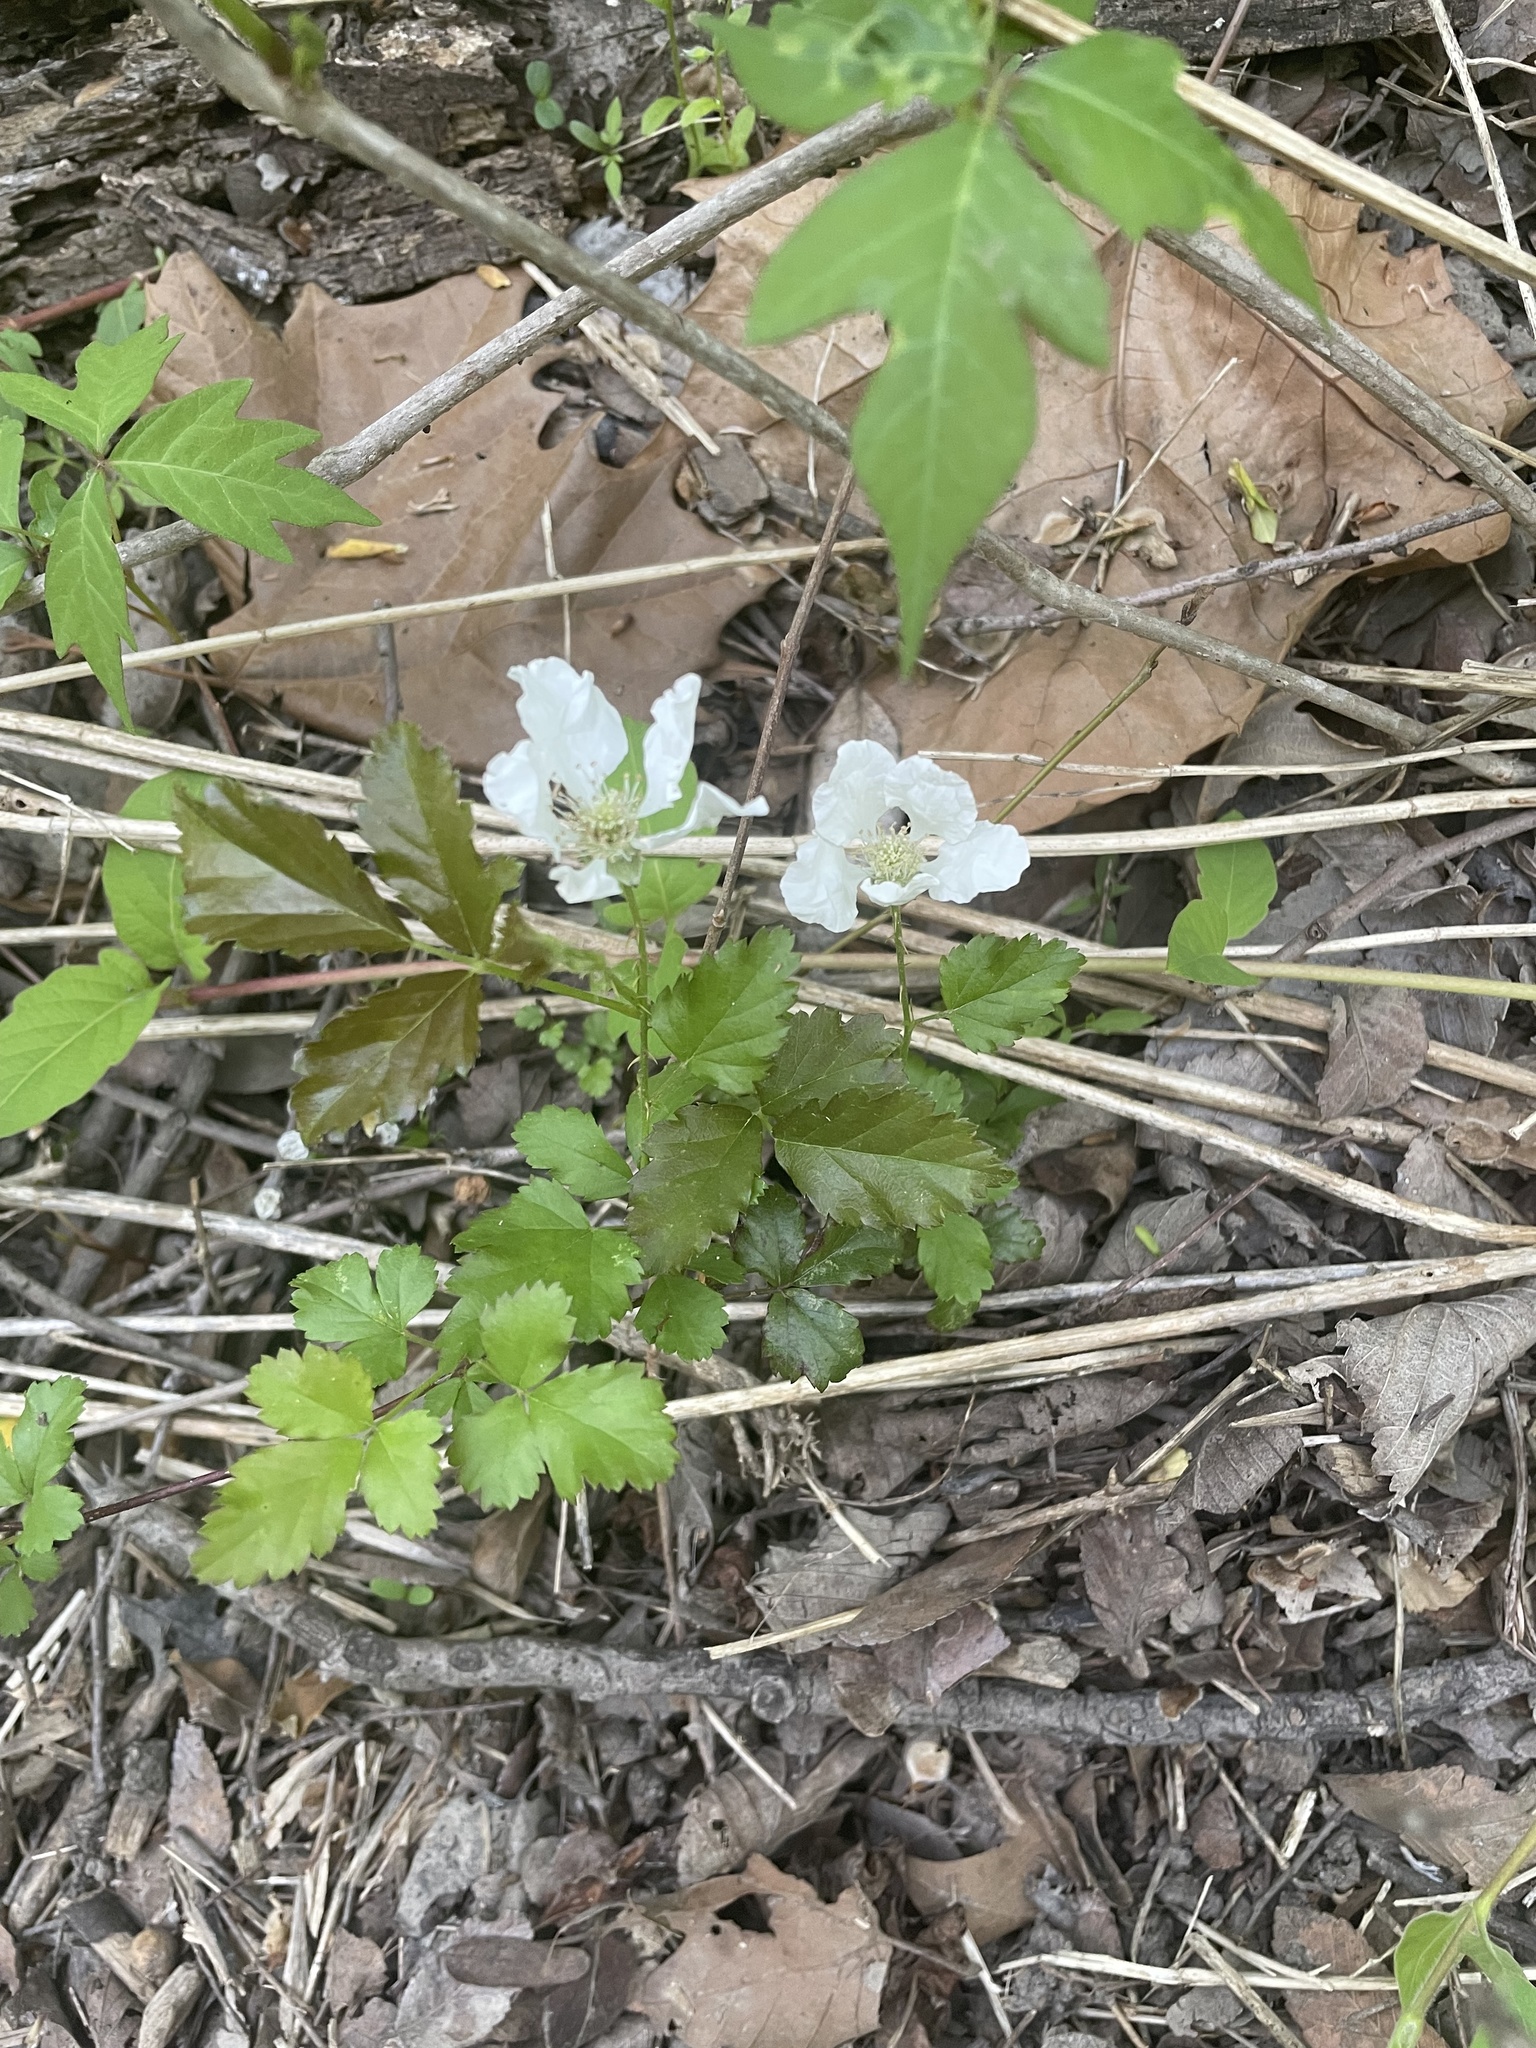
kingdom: Plantae
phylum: Tracheophyta
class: Magnoliopsida
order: Rosales
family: Rosaceae
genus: Rubus
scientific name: Rubus trivialis
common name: Southern dewberry
